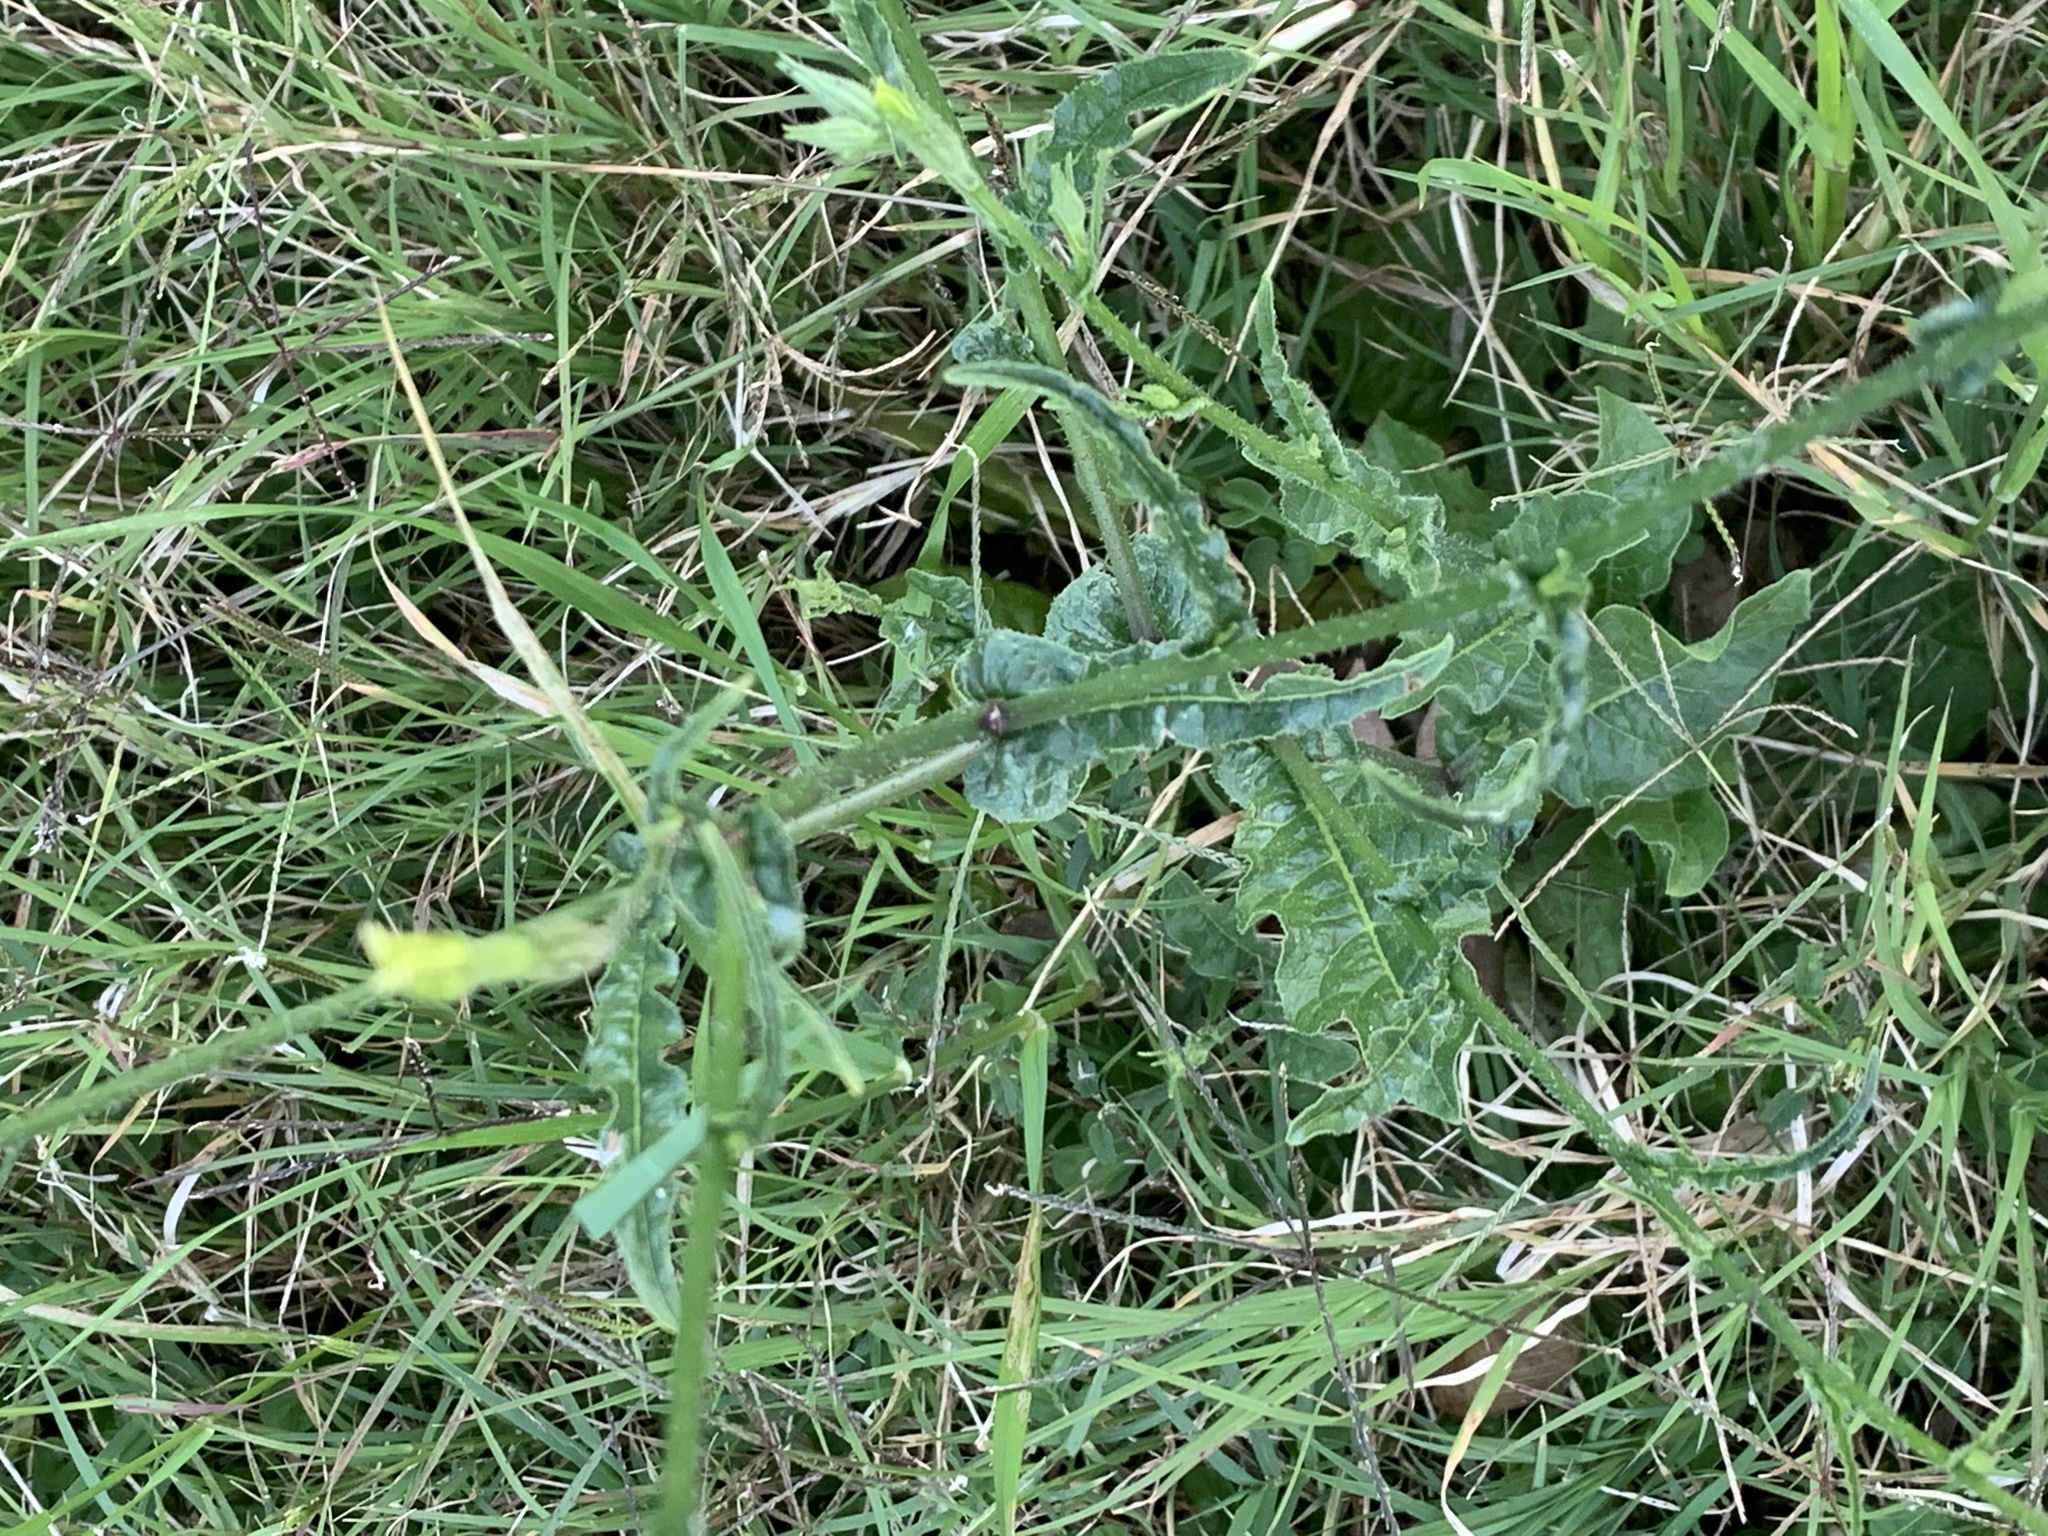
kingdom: Plantae
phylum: Tracheophyta
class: Magnoliopsida
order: Solanales
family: Solanaceae
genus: Nicotiana
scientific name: Nicotiana longiflora
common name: Long-flowered tobacco
